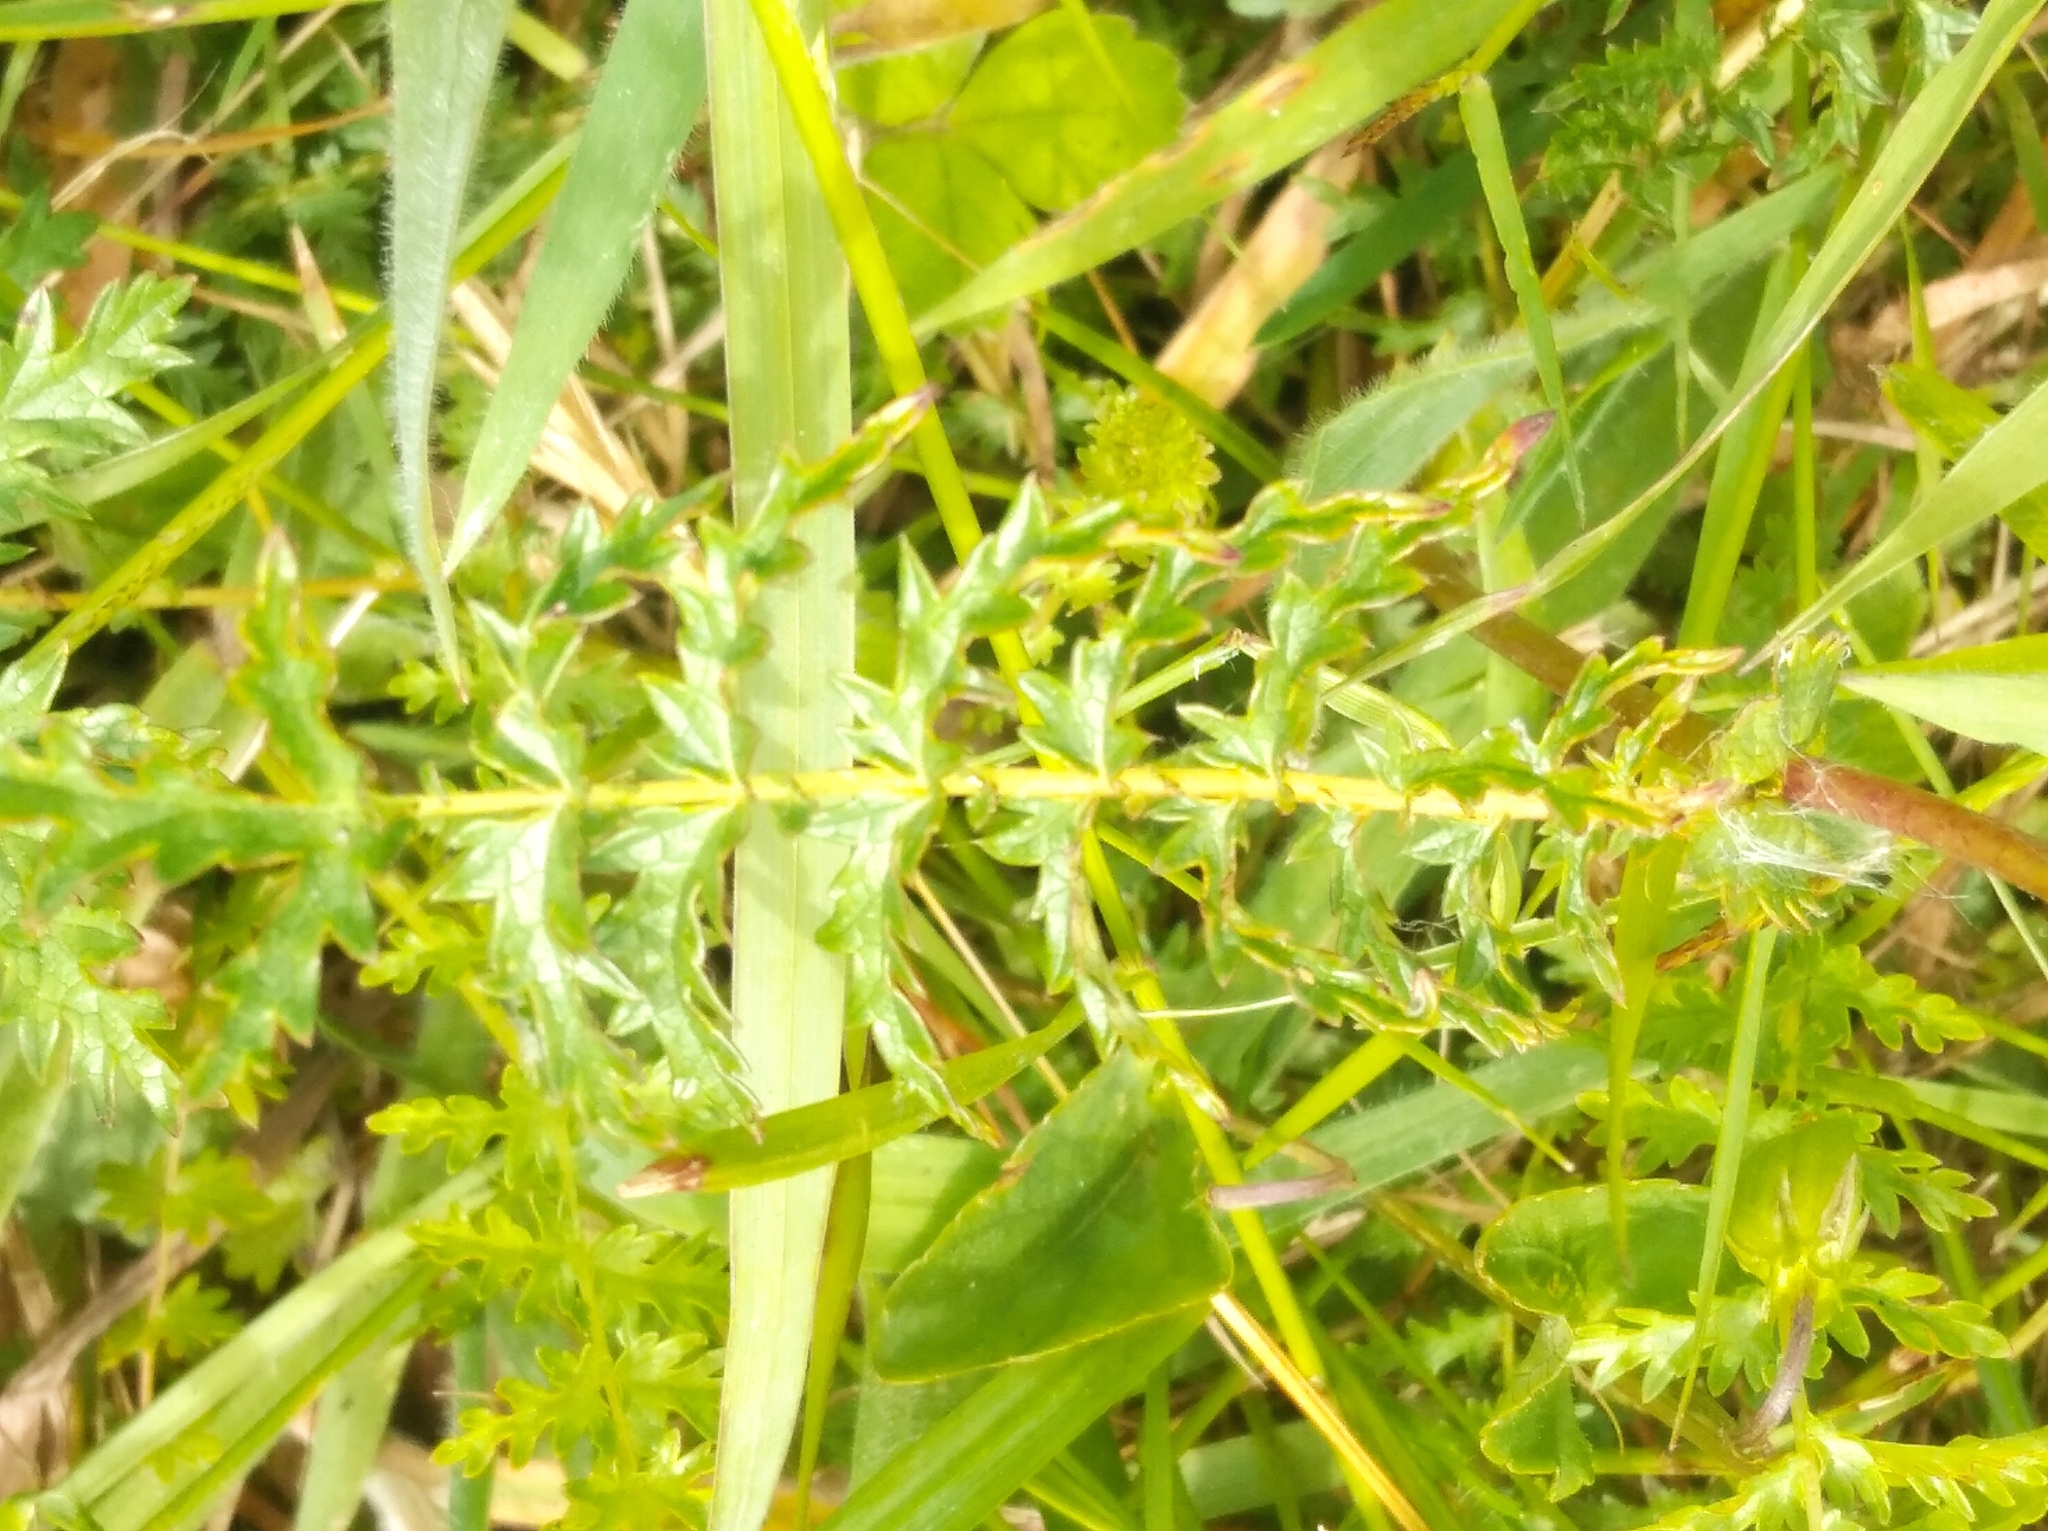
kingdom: Plantae
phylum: Tracheophyta
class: Magnoliopsida
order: Rosales
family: Rosaceae
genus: Filipendula
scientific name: Filipendula vulgaris
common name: Dropwort
